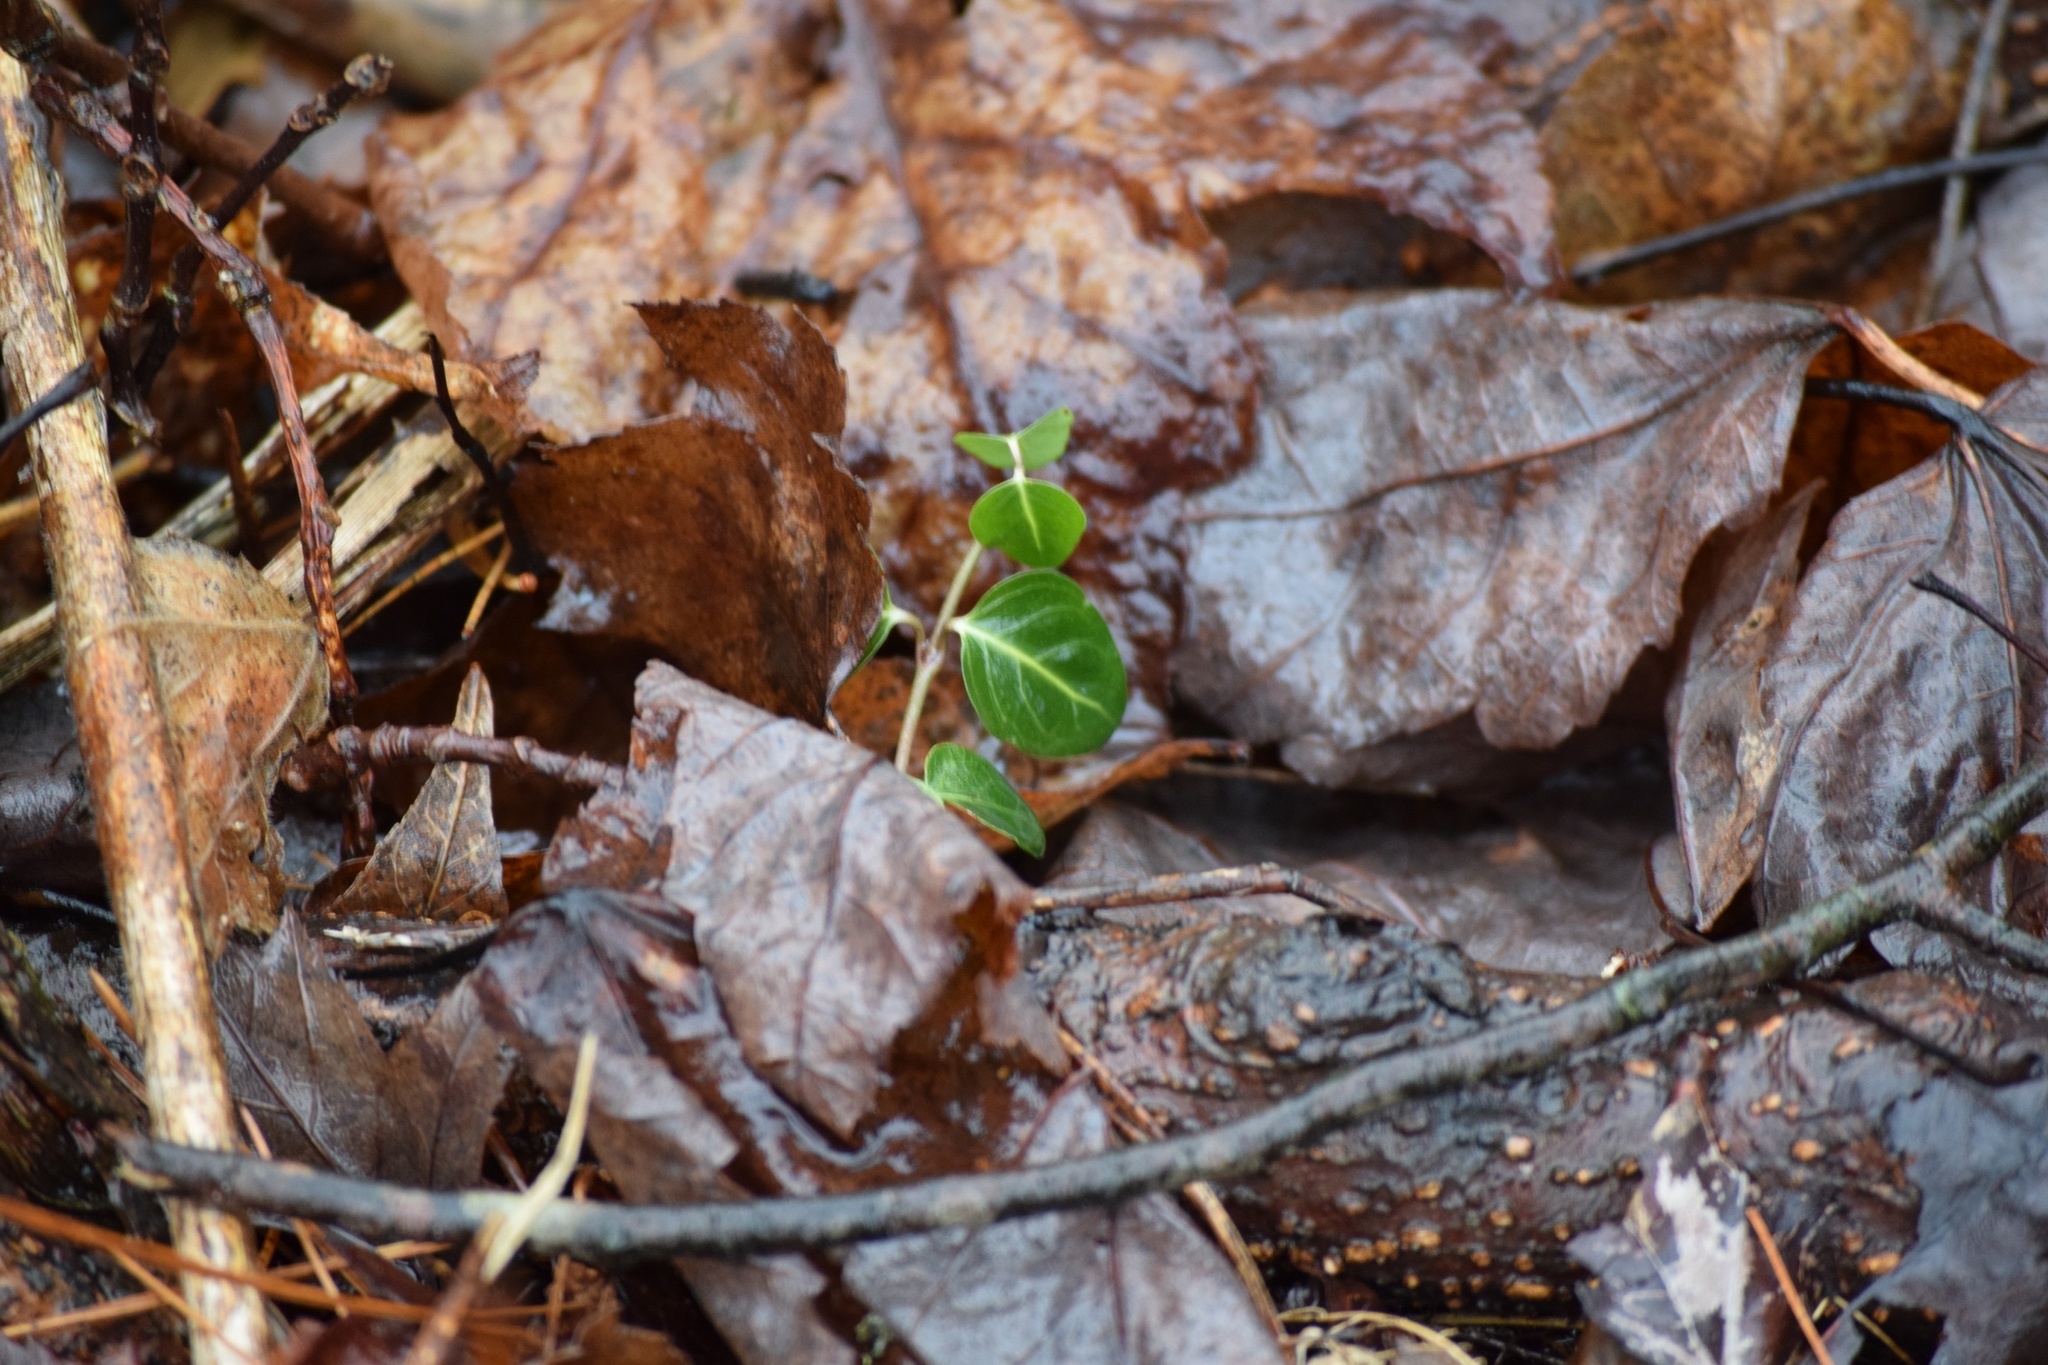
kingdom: Plantae
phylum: Tracheophyta
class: Magnoliopsida
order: Gentianales
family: Rubiaceae
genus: Mitchella
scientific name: Mitchella repens
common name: Partridge-berry
